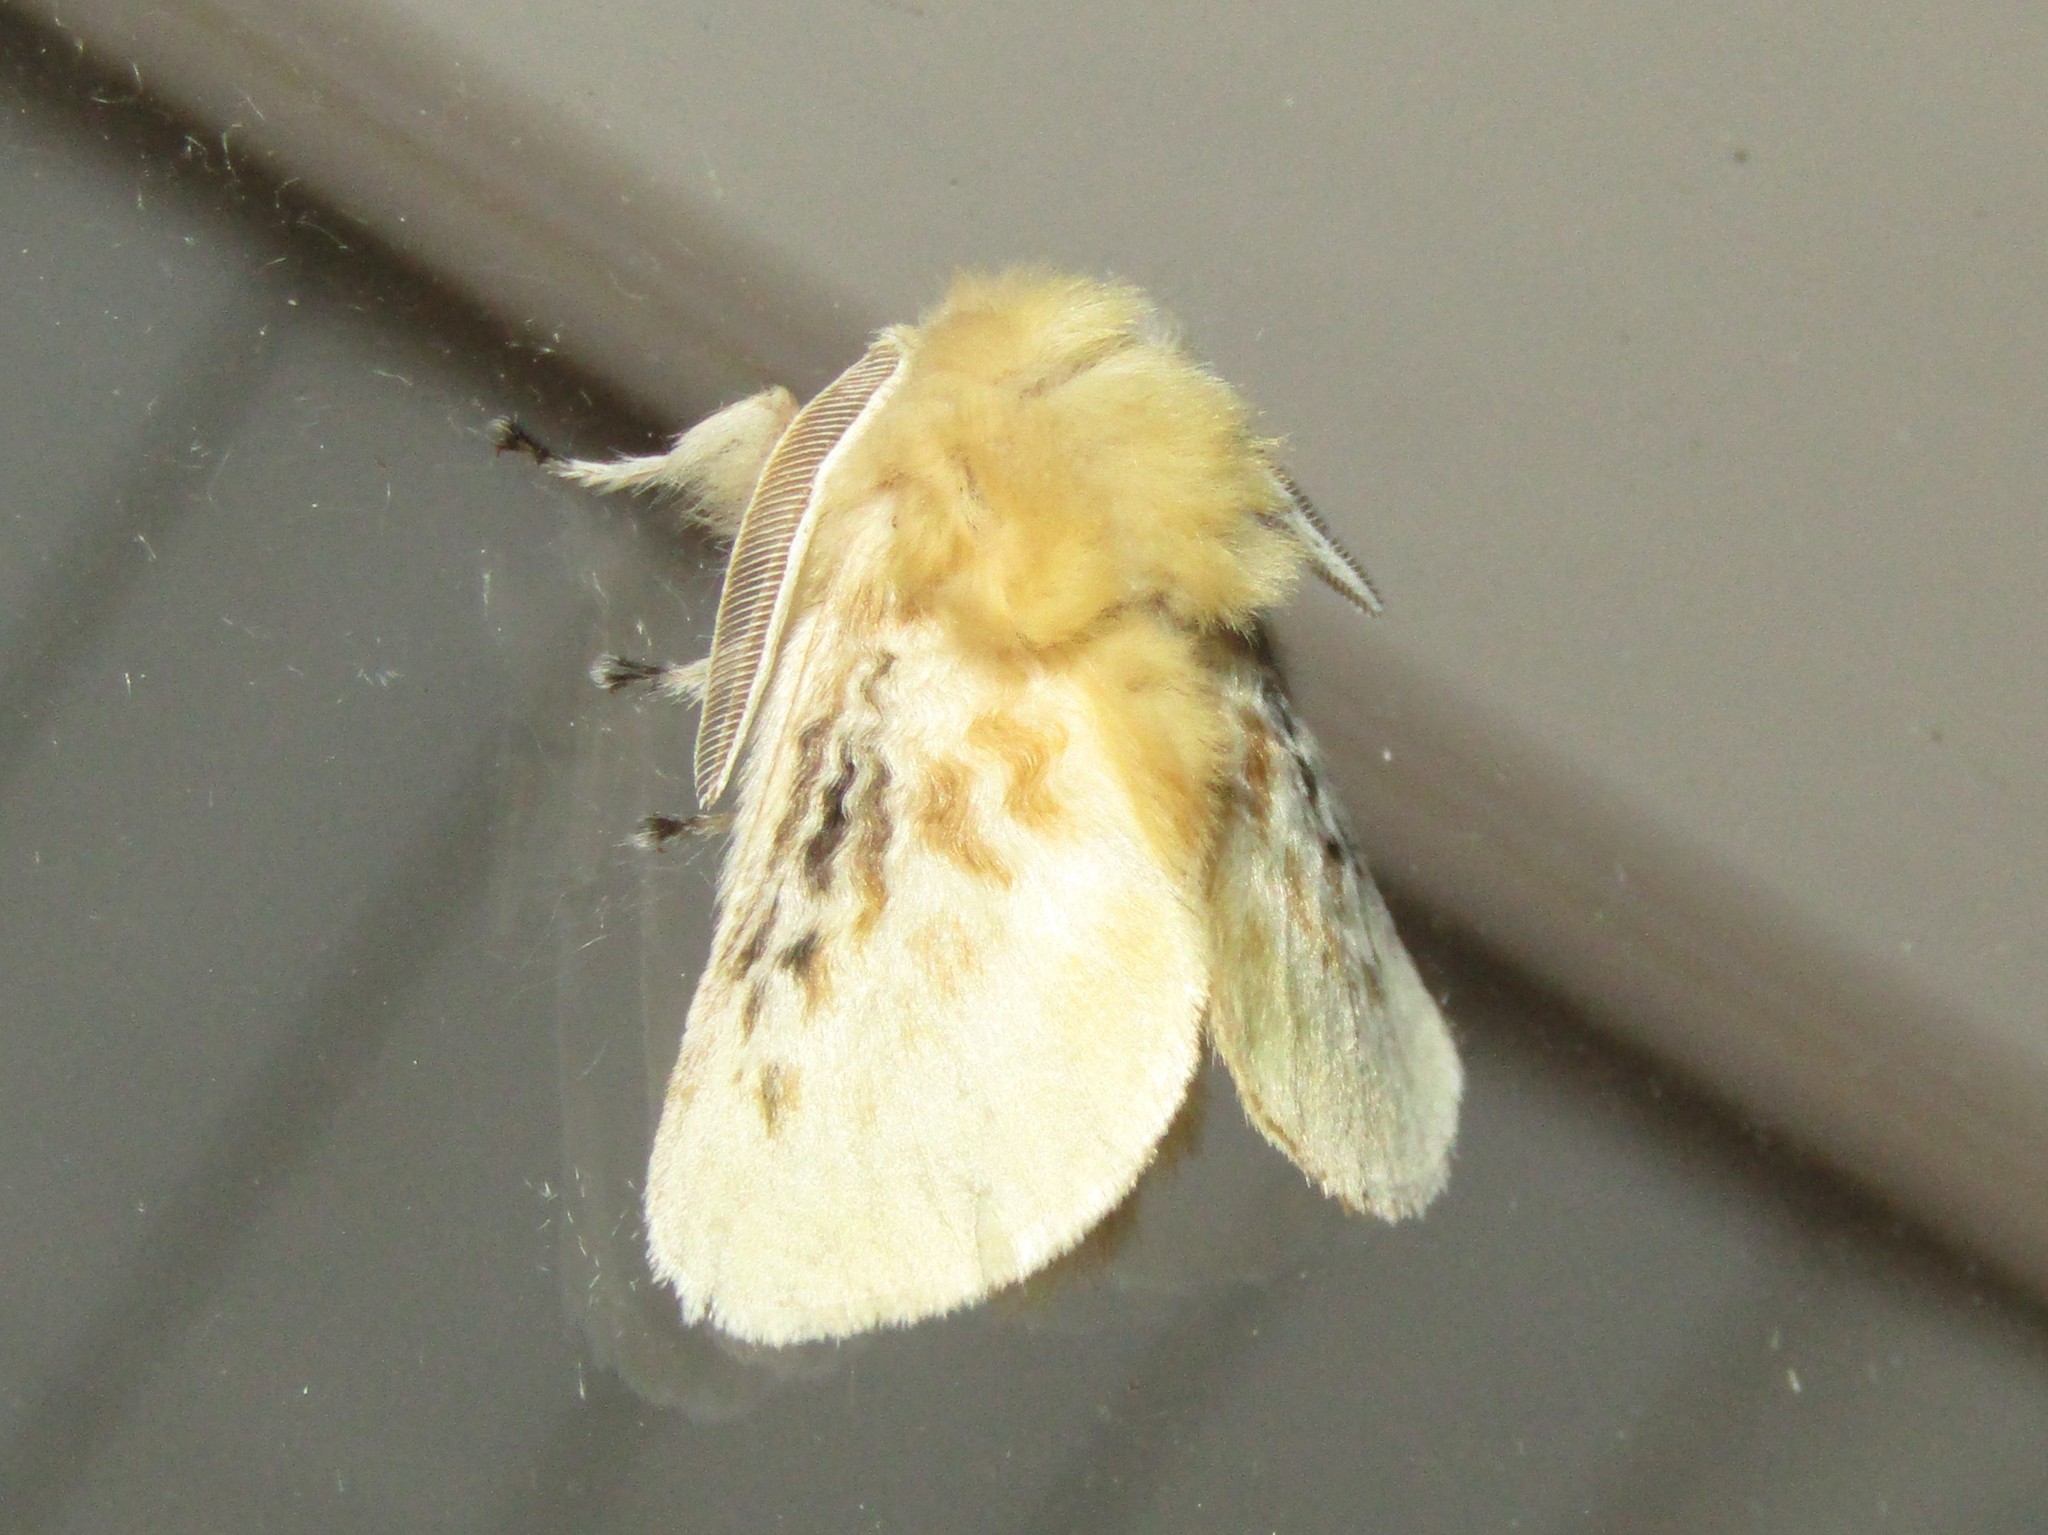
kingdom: Animalia
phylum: Arthropoda
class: Insecta
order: Lepidoptera
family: Megalopygidae
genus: Megalopyge
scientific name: Megalopyge crispata
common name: Black-waved flannel moth
